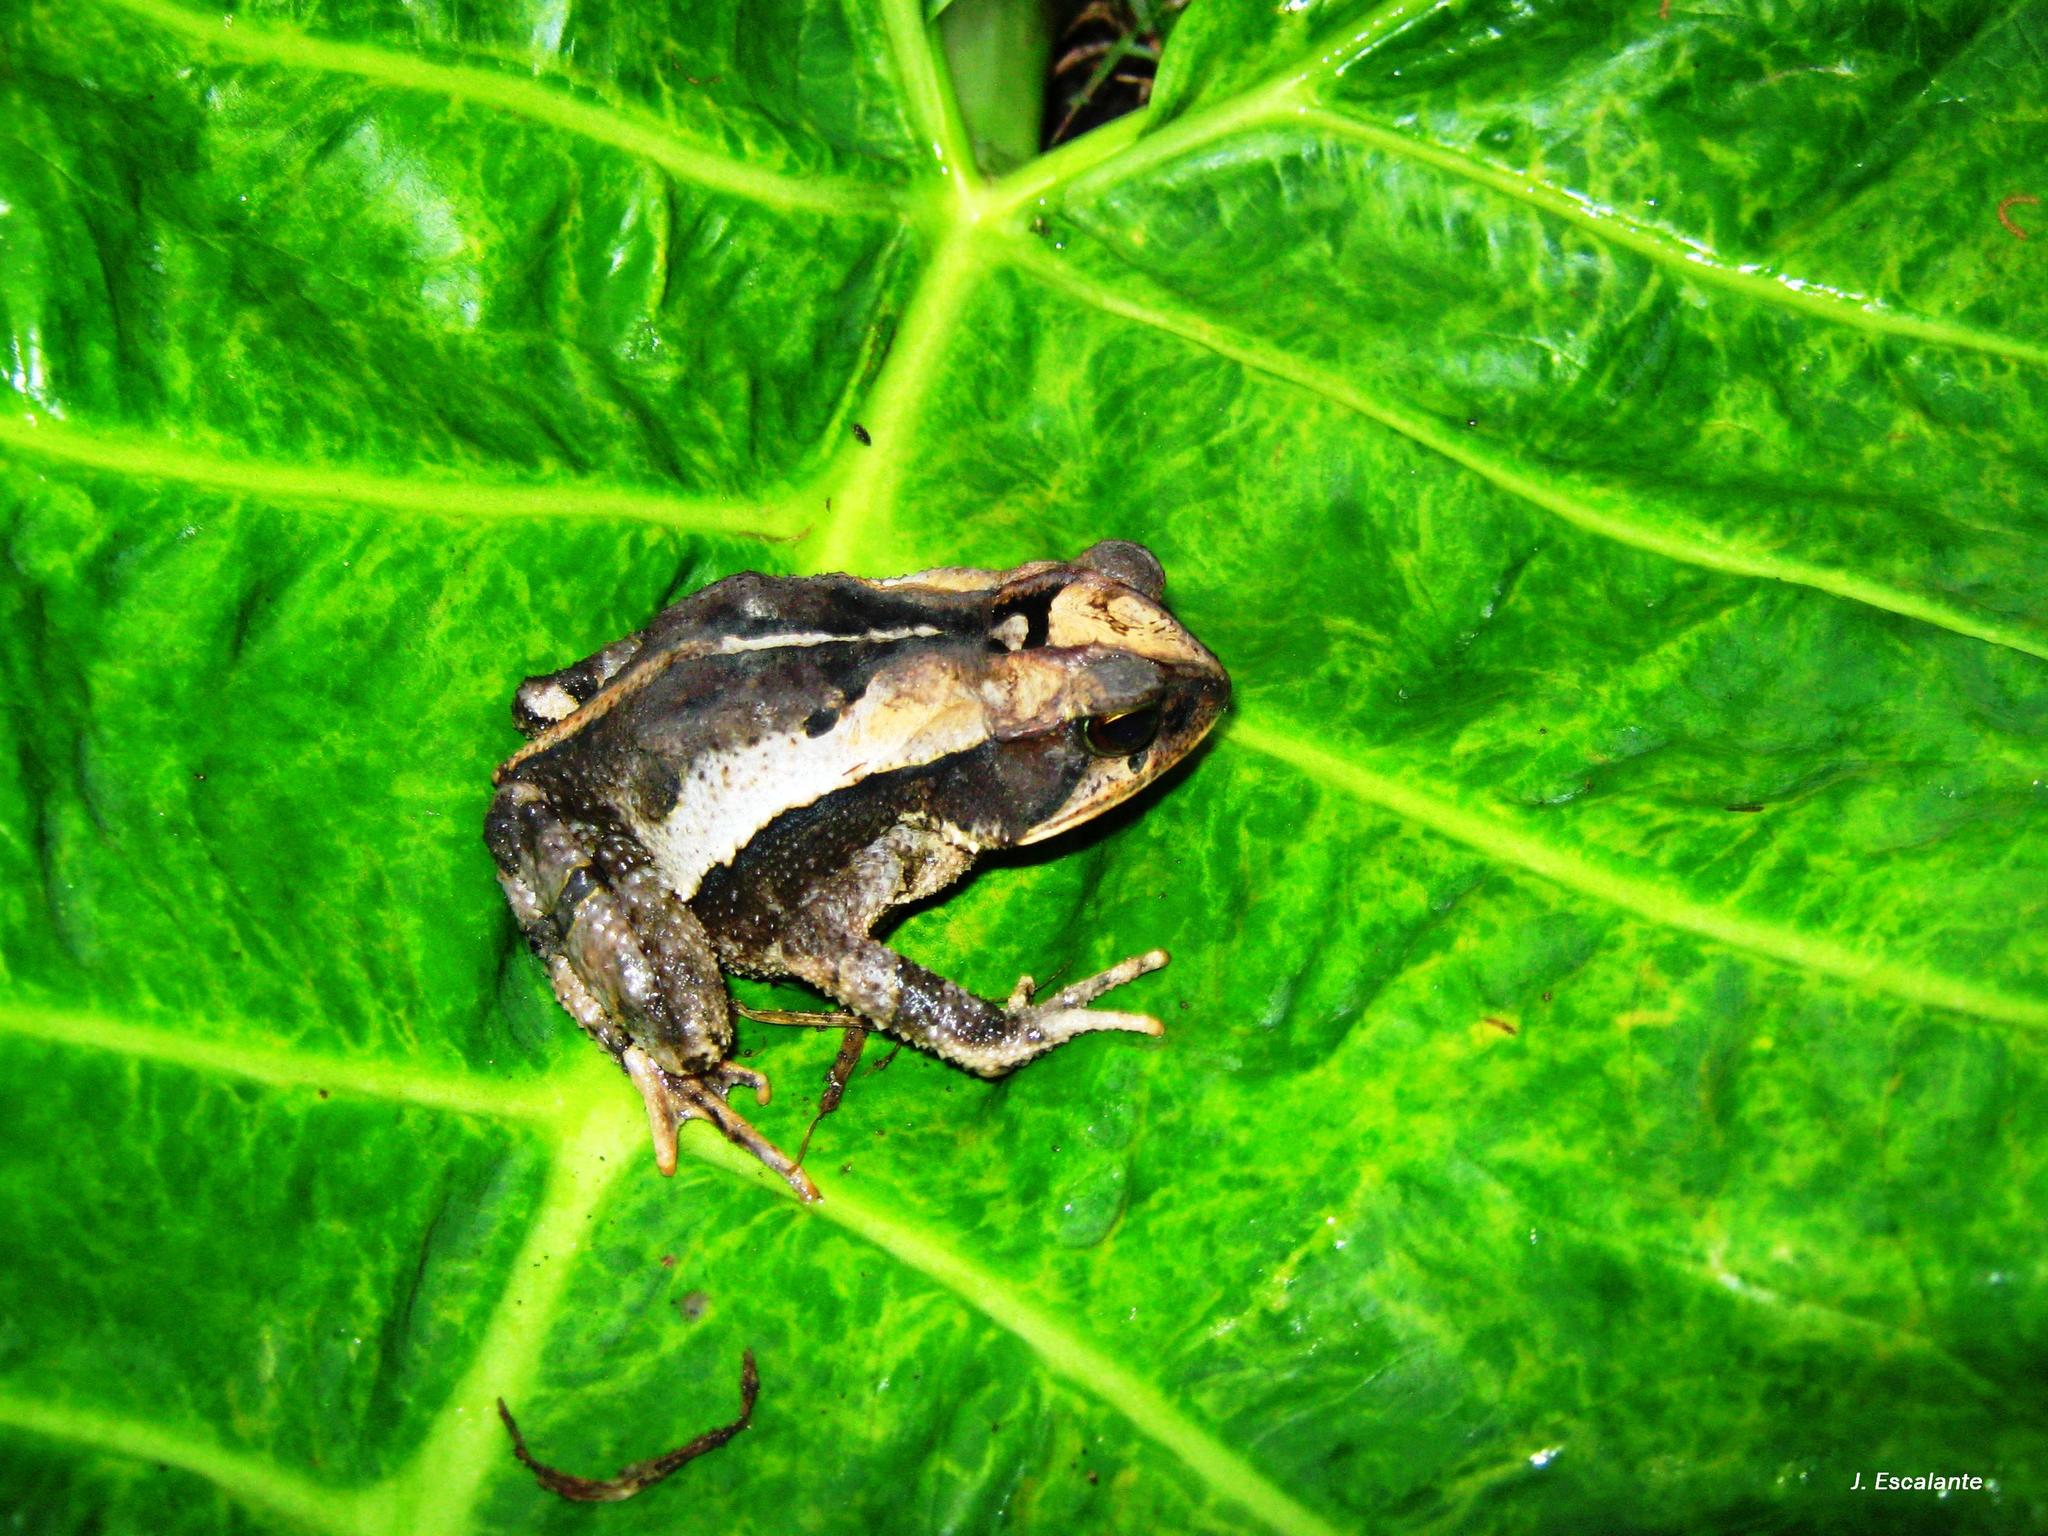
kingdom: Animalia
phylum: Chordata
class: Amphibia
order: Anura
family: Bufonidae
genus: Incilius
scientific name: Incilius cavifrons
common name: Mountain toad
